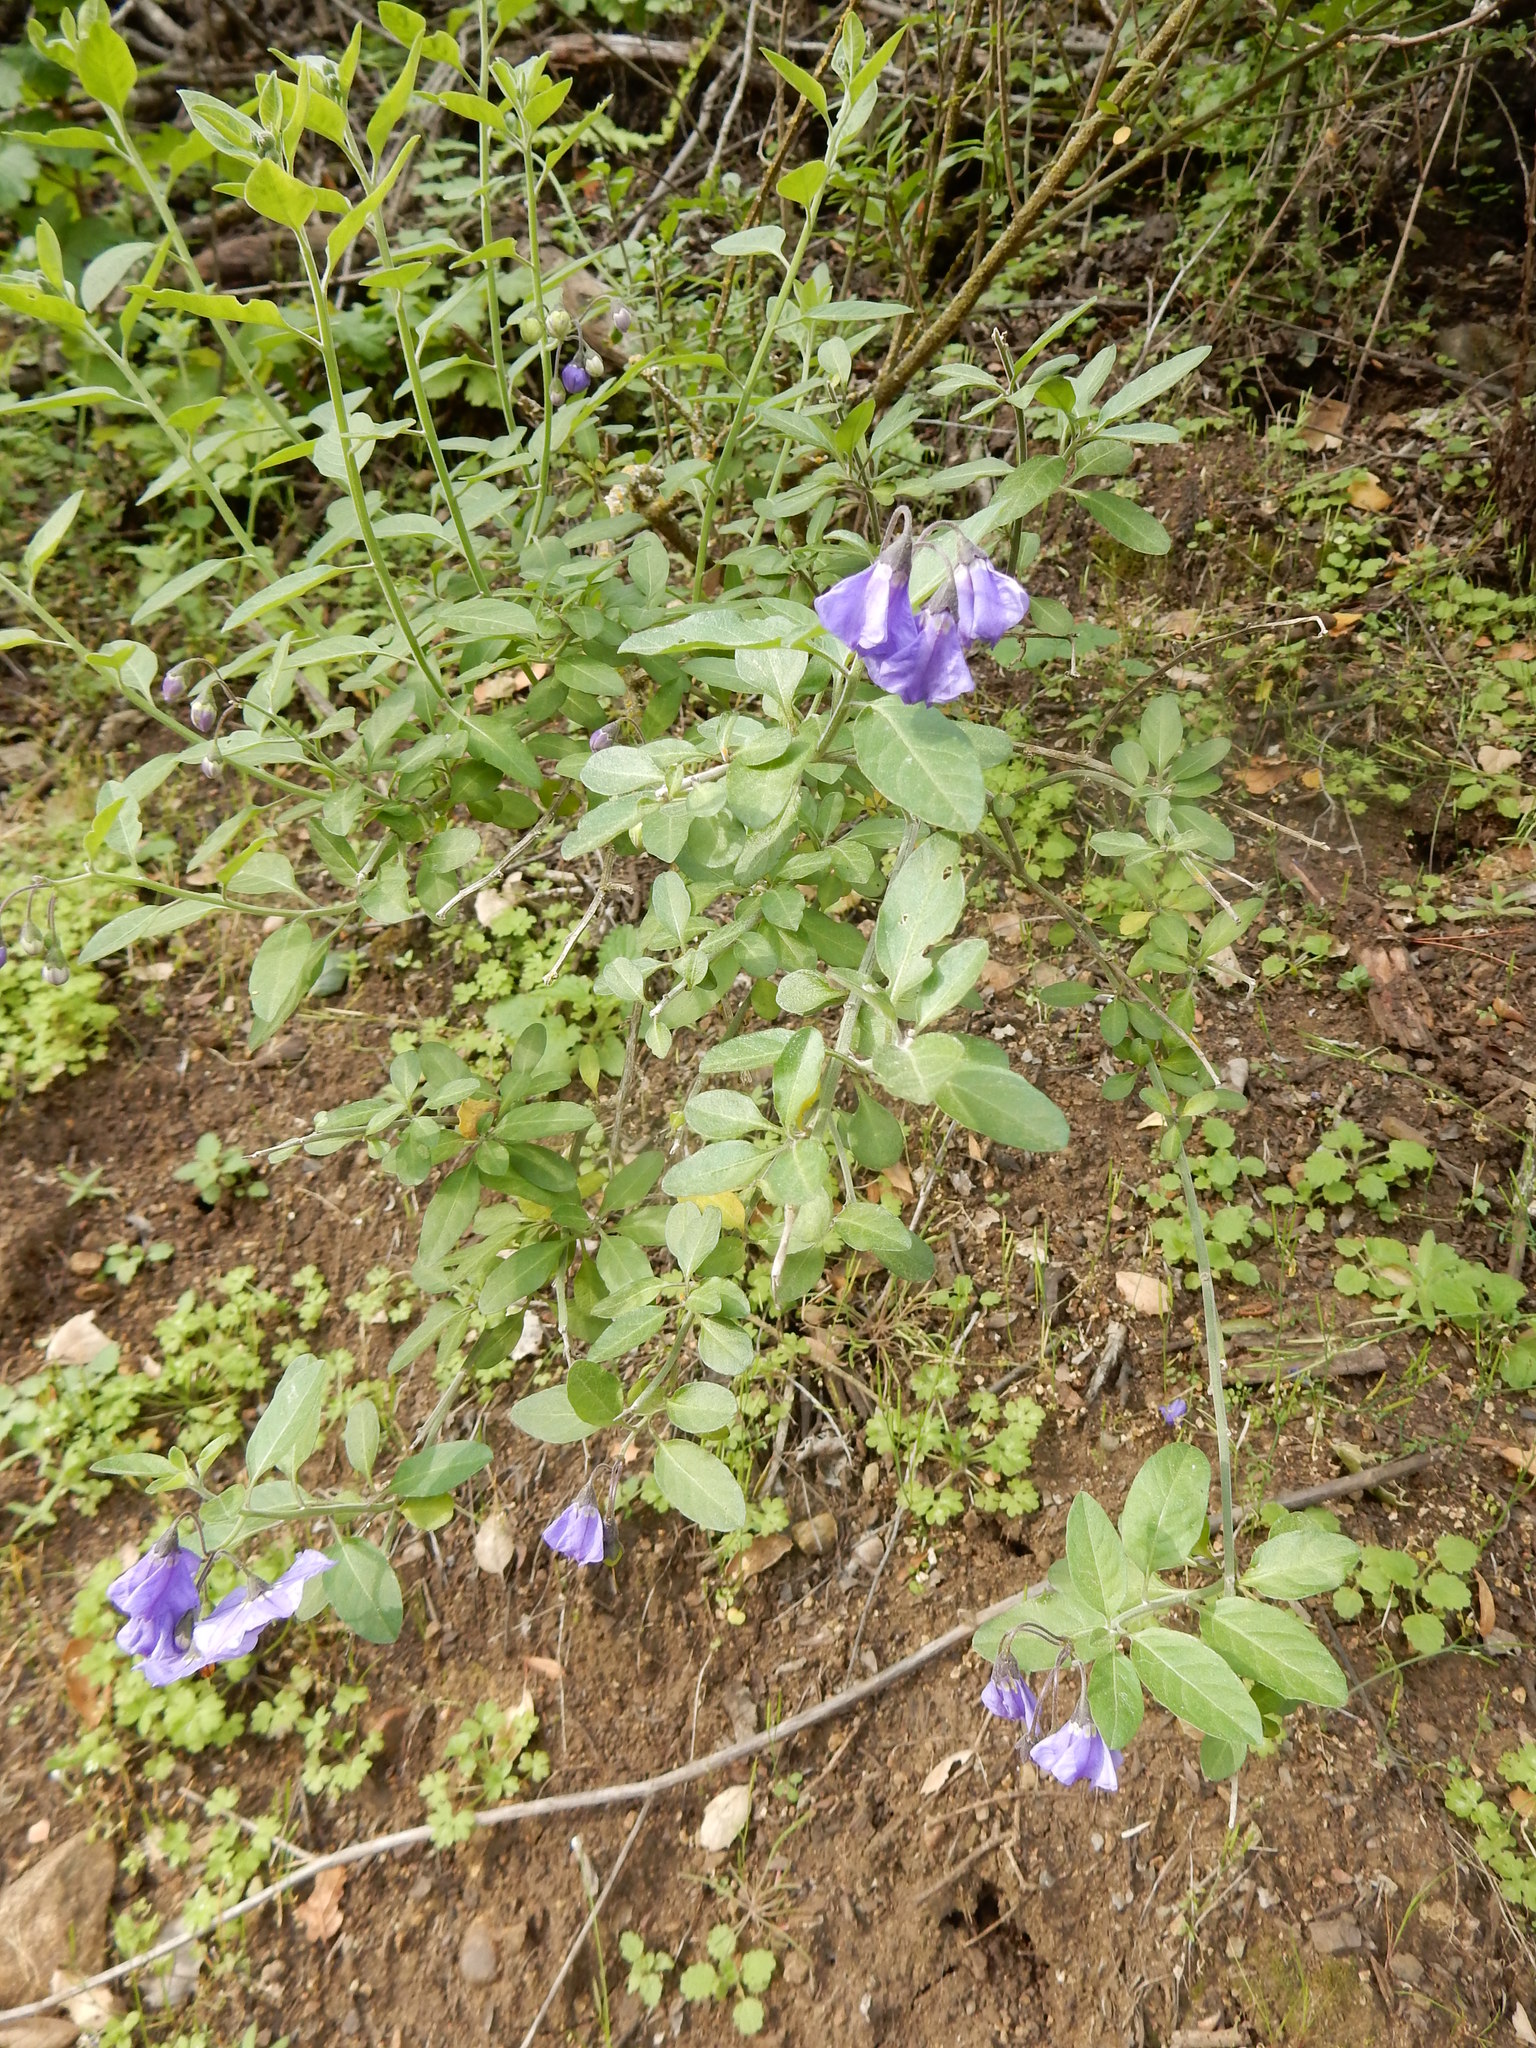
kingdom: Plantae
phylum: Tracheophyta
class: Magnoliopsida
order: Solanales
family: Solanaceae
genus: Solanum
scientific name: Solanum umbelliferum
